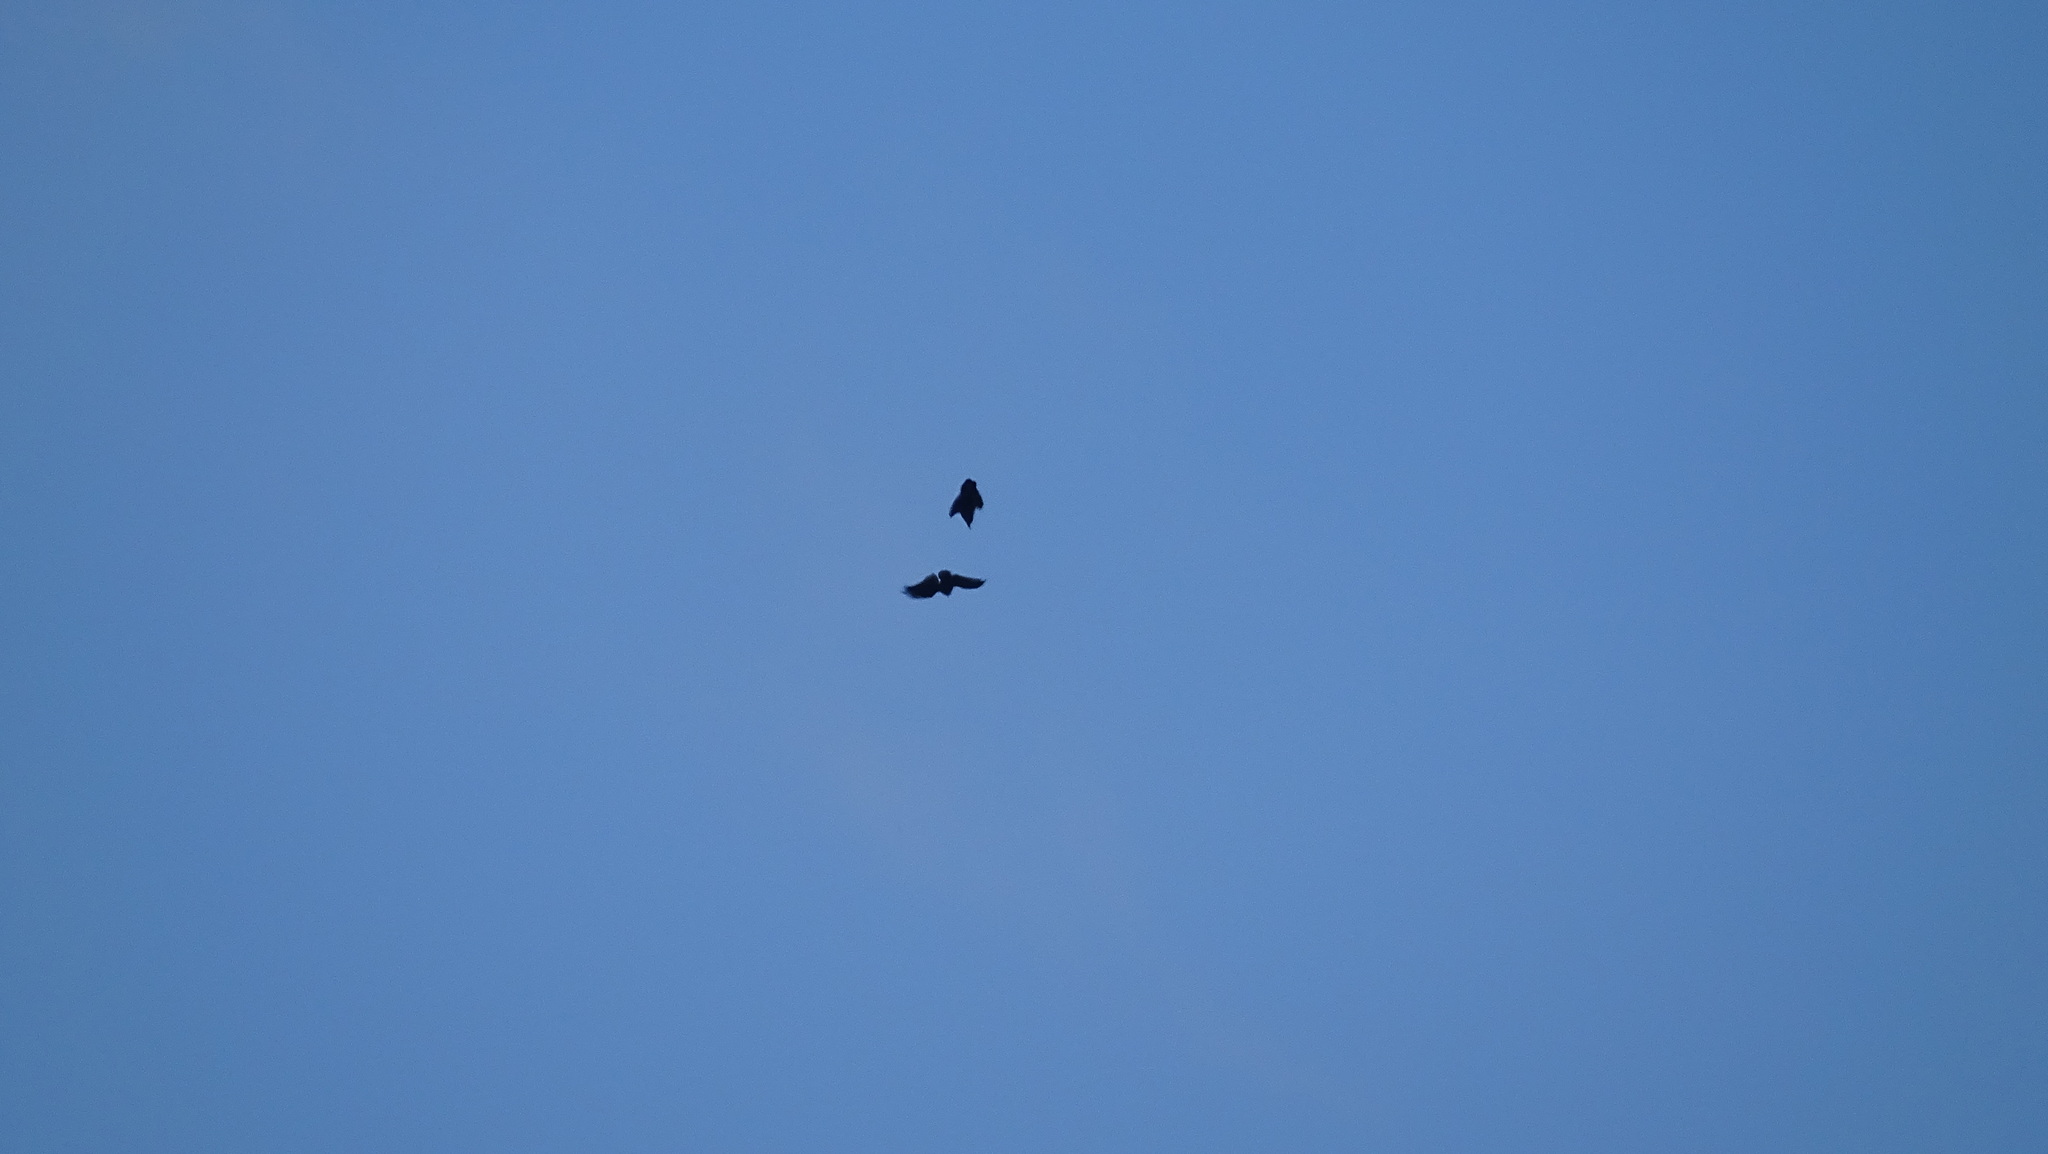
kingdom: Animalia
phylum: Chordata
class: Aves
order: Passeriformes
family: Corvidae
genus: Corvus
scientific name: Corvus corax
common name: Common raven
